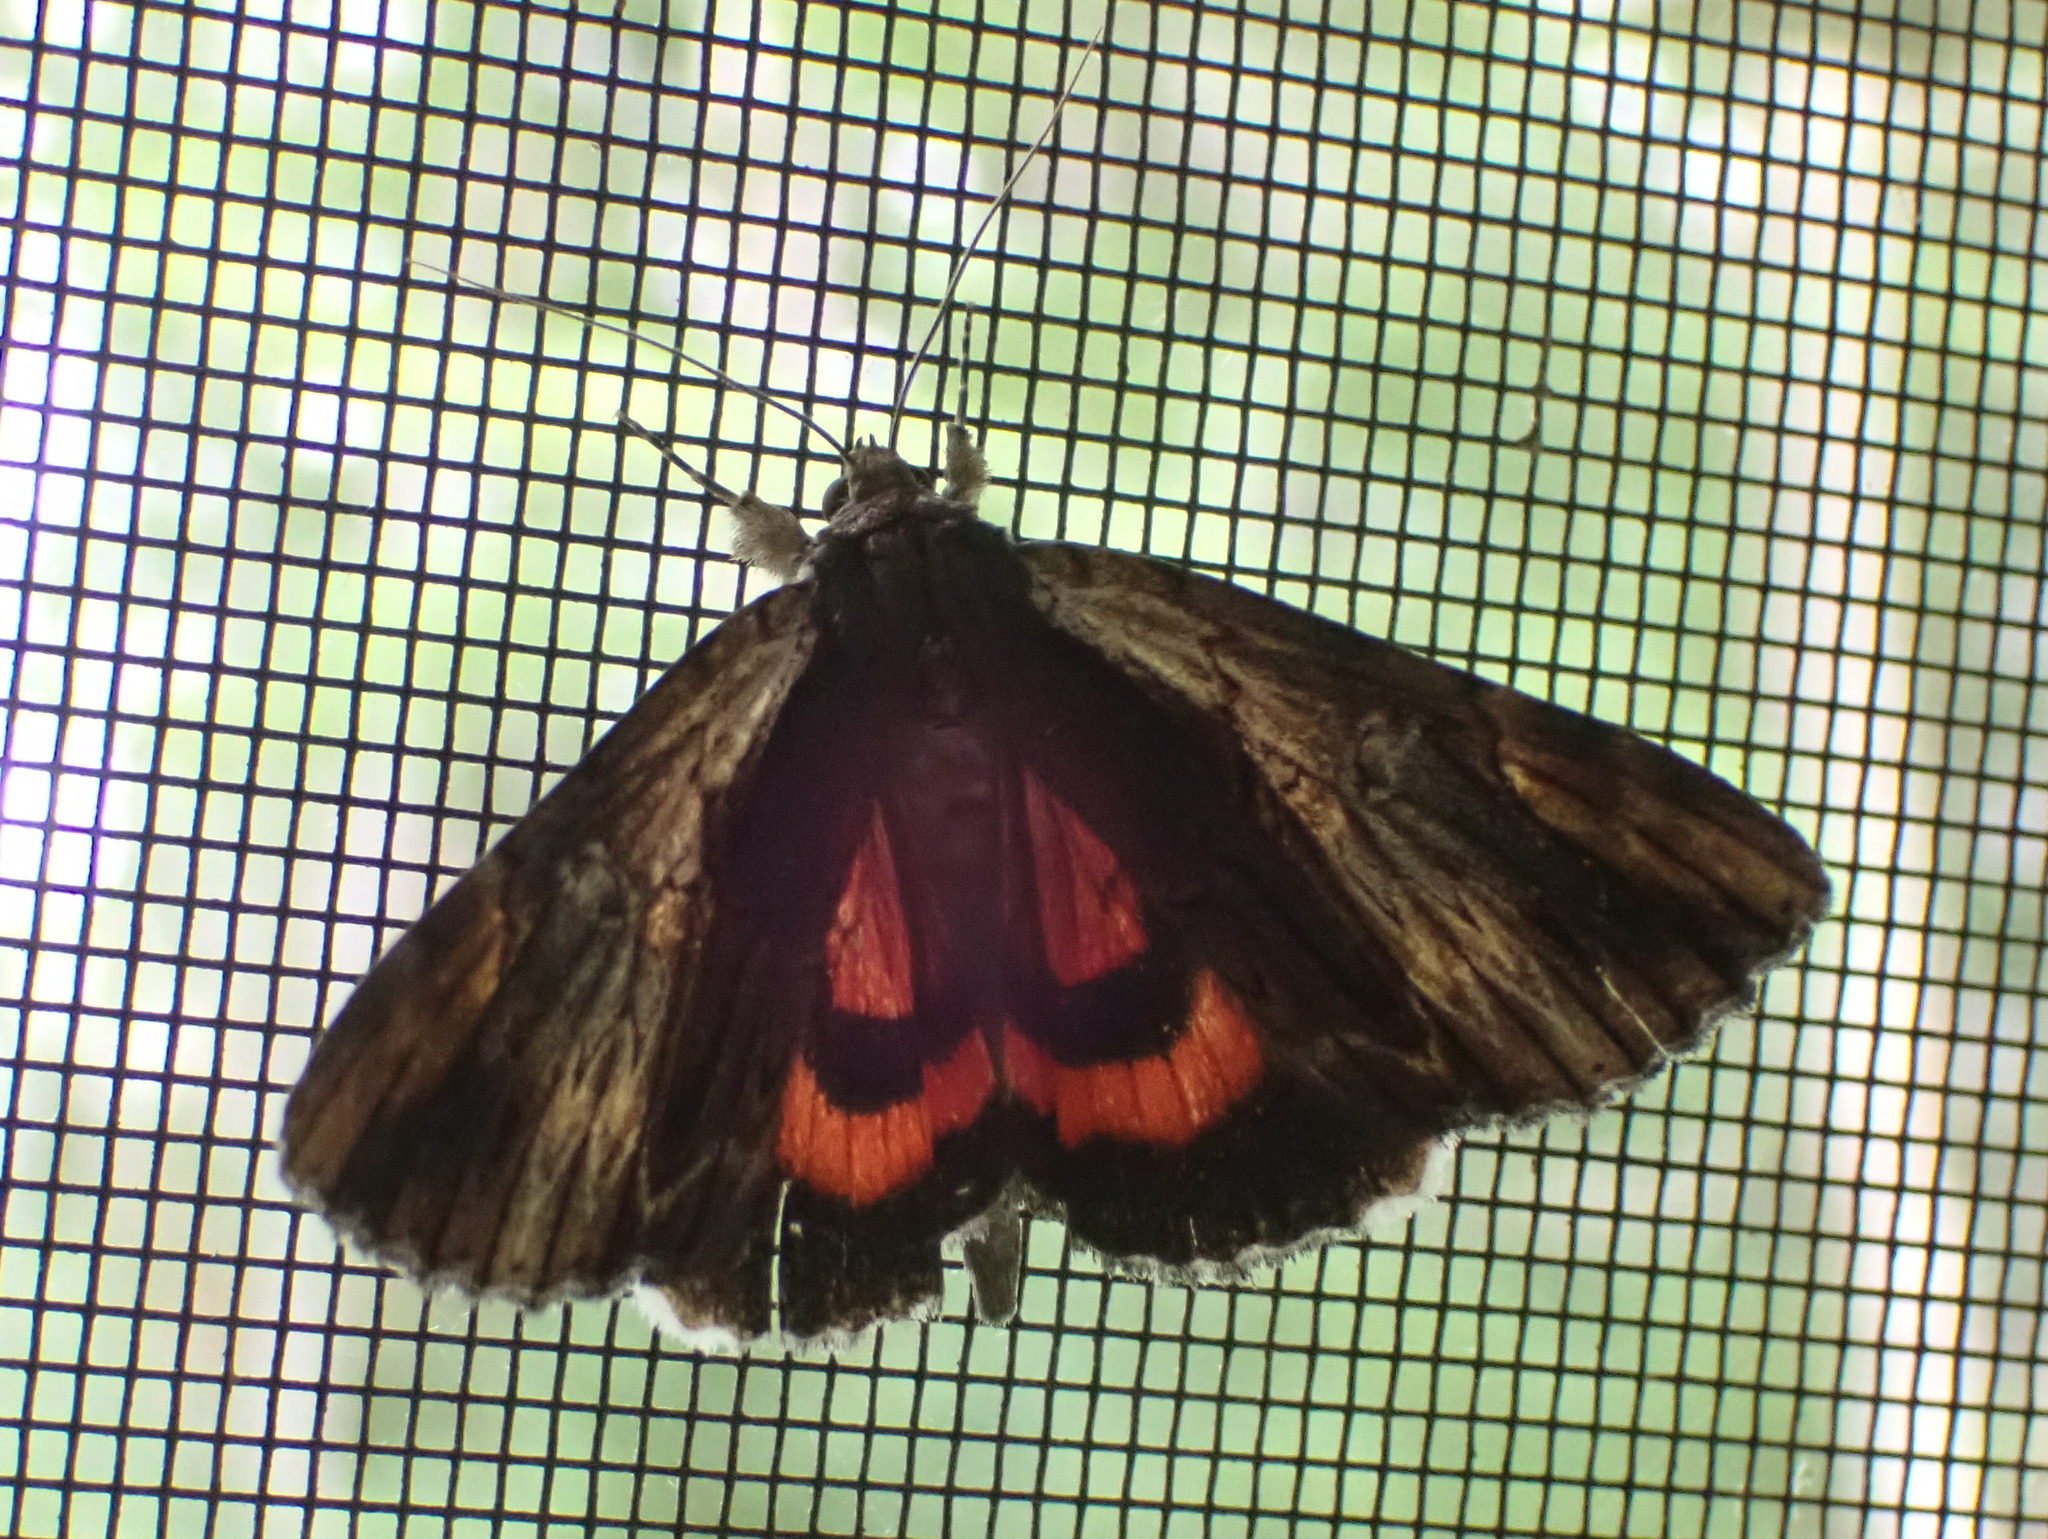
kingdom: Animalia
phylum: Arthropoda
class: Insecta
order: Lepidoptera
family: Erebidae
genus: Catocala
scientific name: Catocala ultronia
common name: Ultronia underwing
